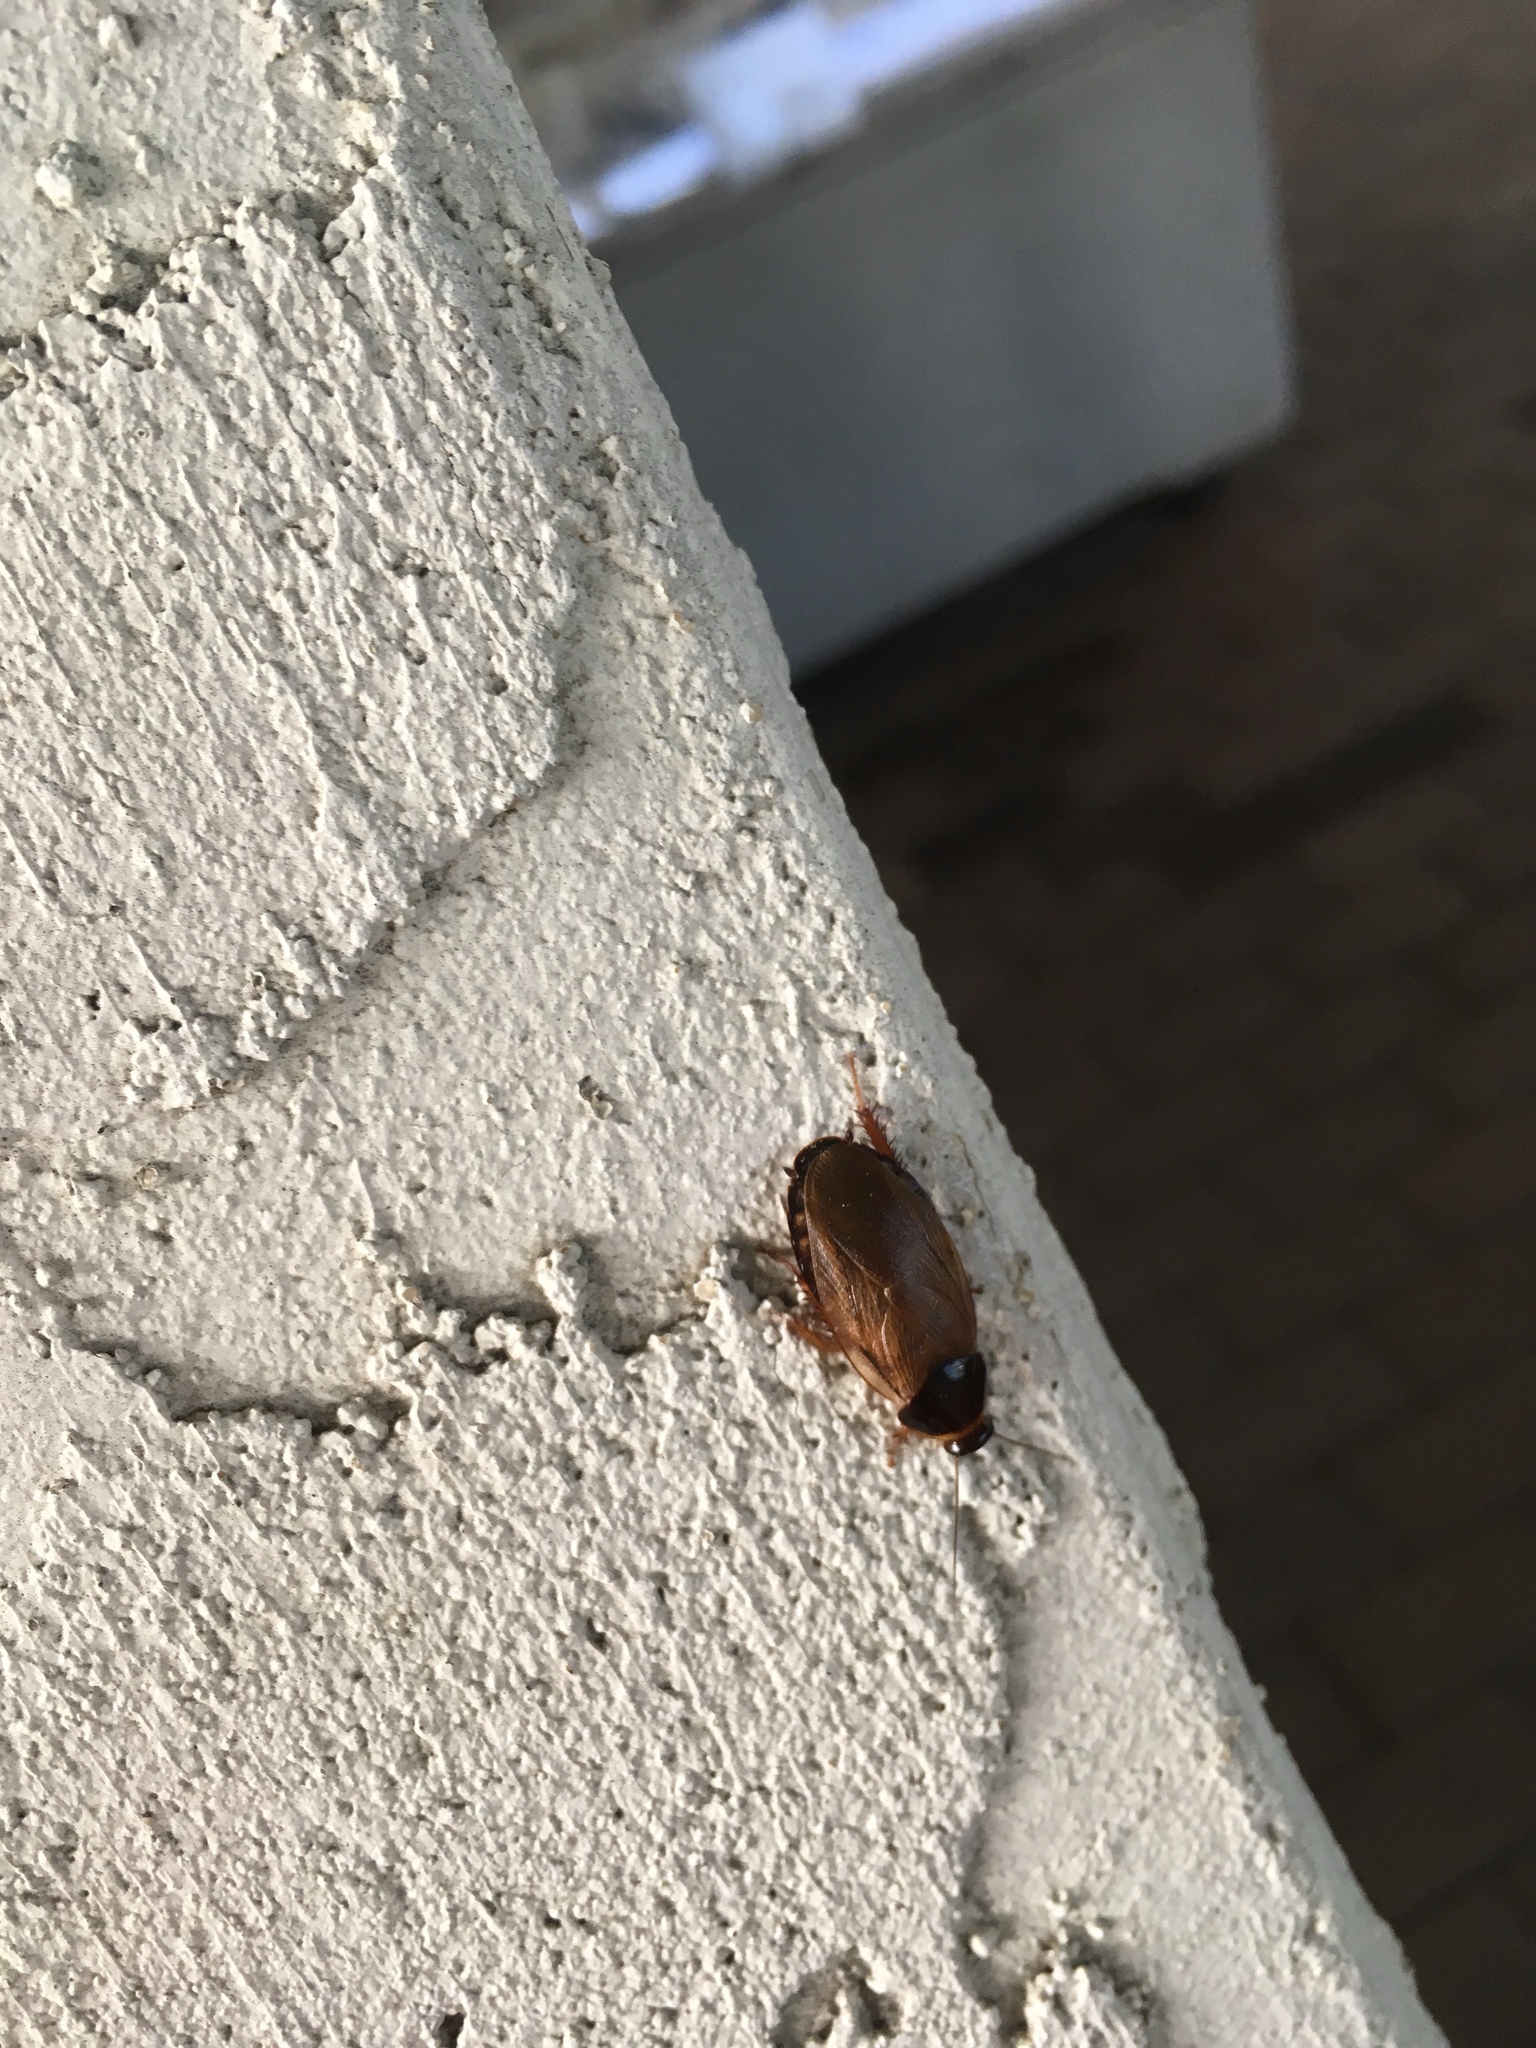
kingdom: Animalia
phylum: Arthropoda
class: Insecta
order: Blattodea
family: Blaberidae
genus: Pycnoscelus
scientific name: Pycnoscelus surinamensis
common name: Surinam cockroach
